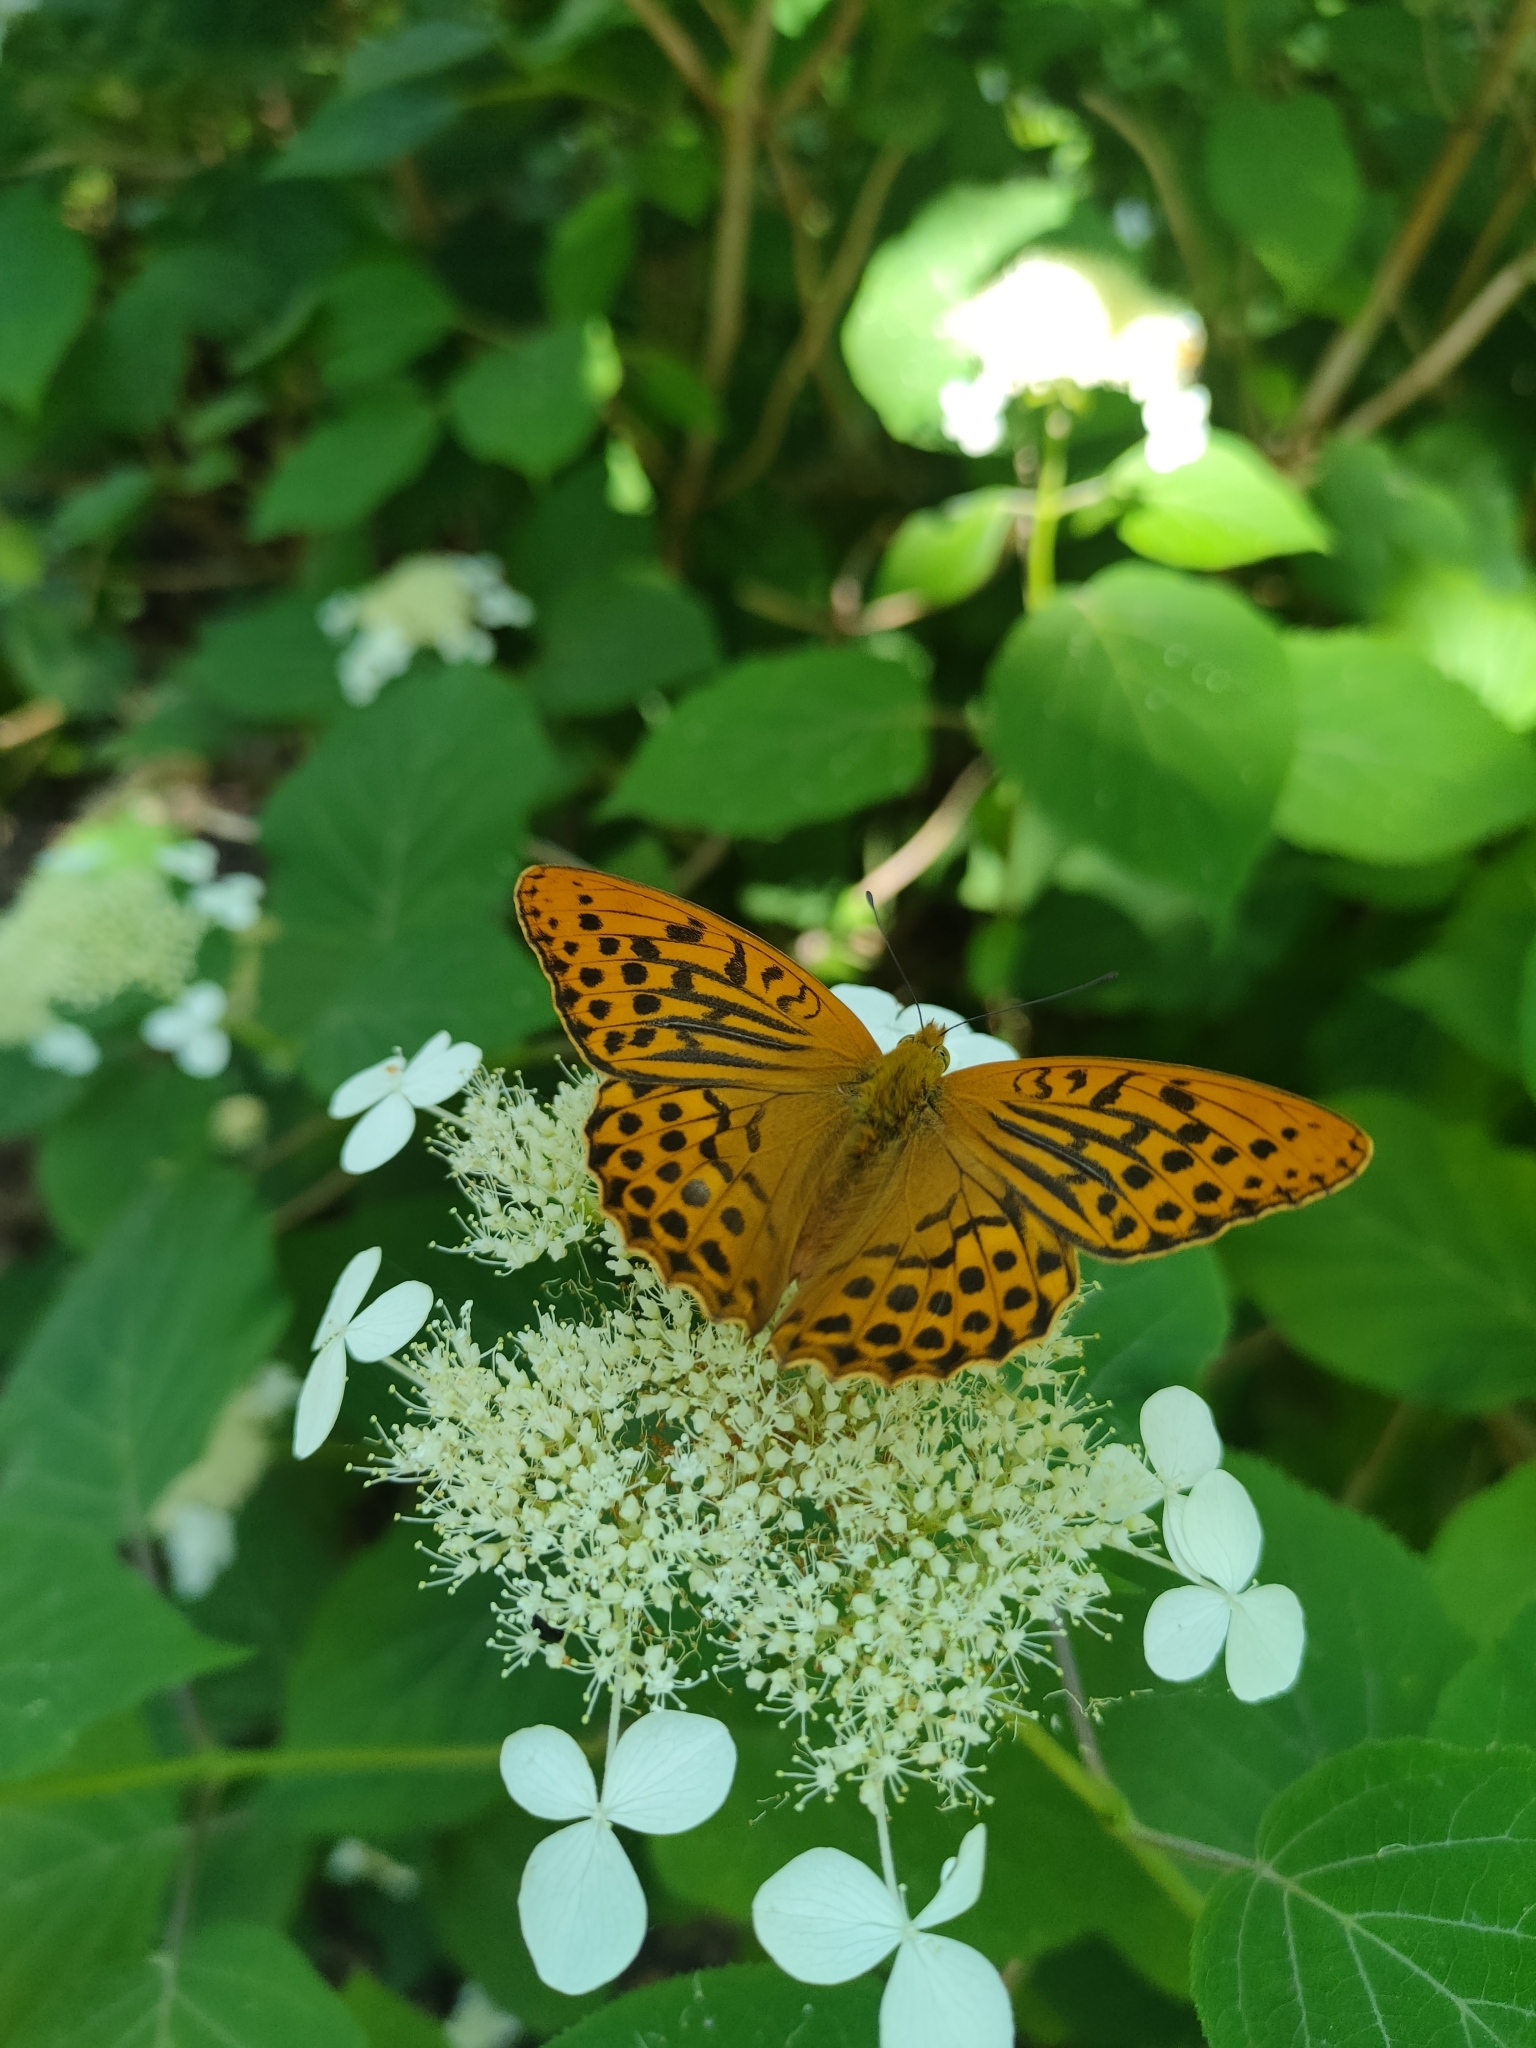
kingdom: Animalia
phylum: Arthropoda
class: Insecta
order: Lepidoptera
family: Nymphalidae
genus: Argynnis
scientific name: Argynnis paphia
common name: Silver-washed fritillary
